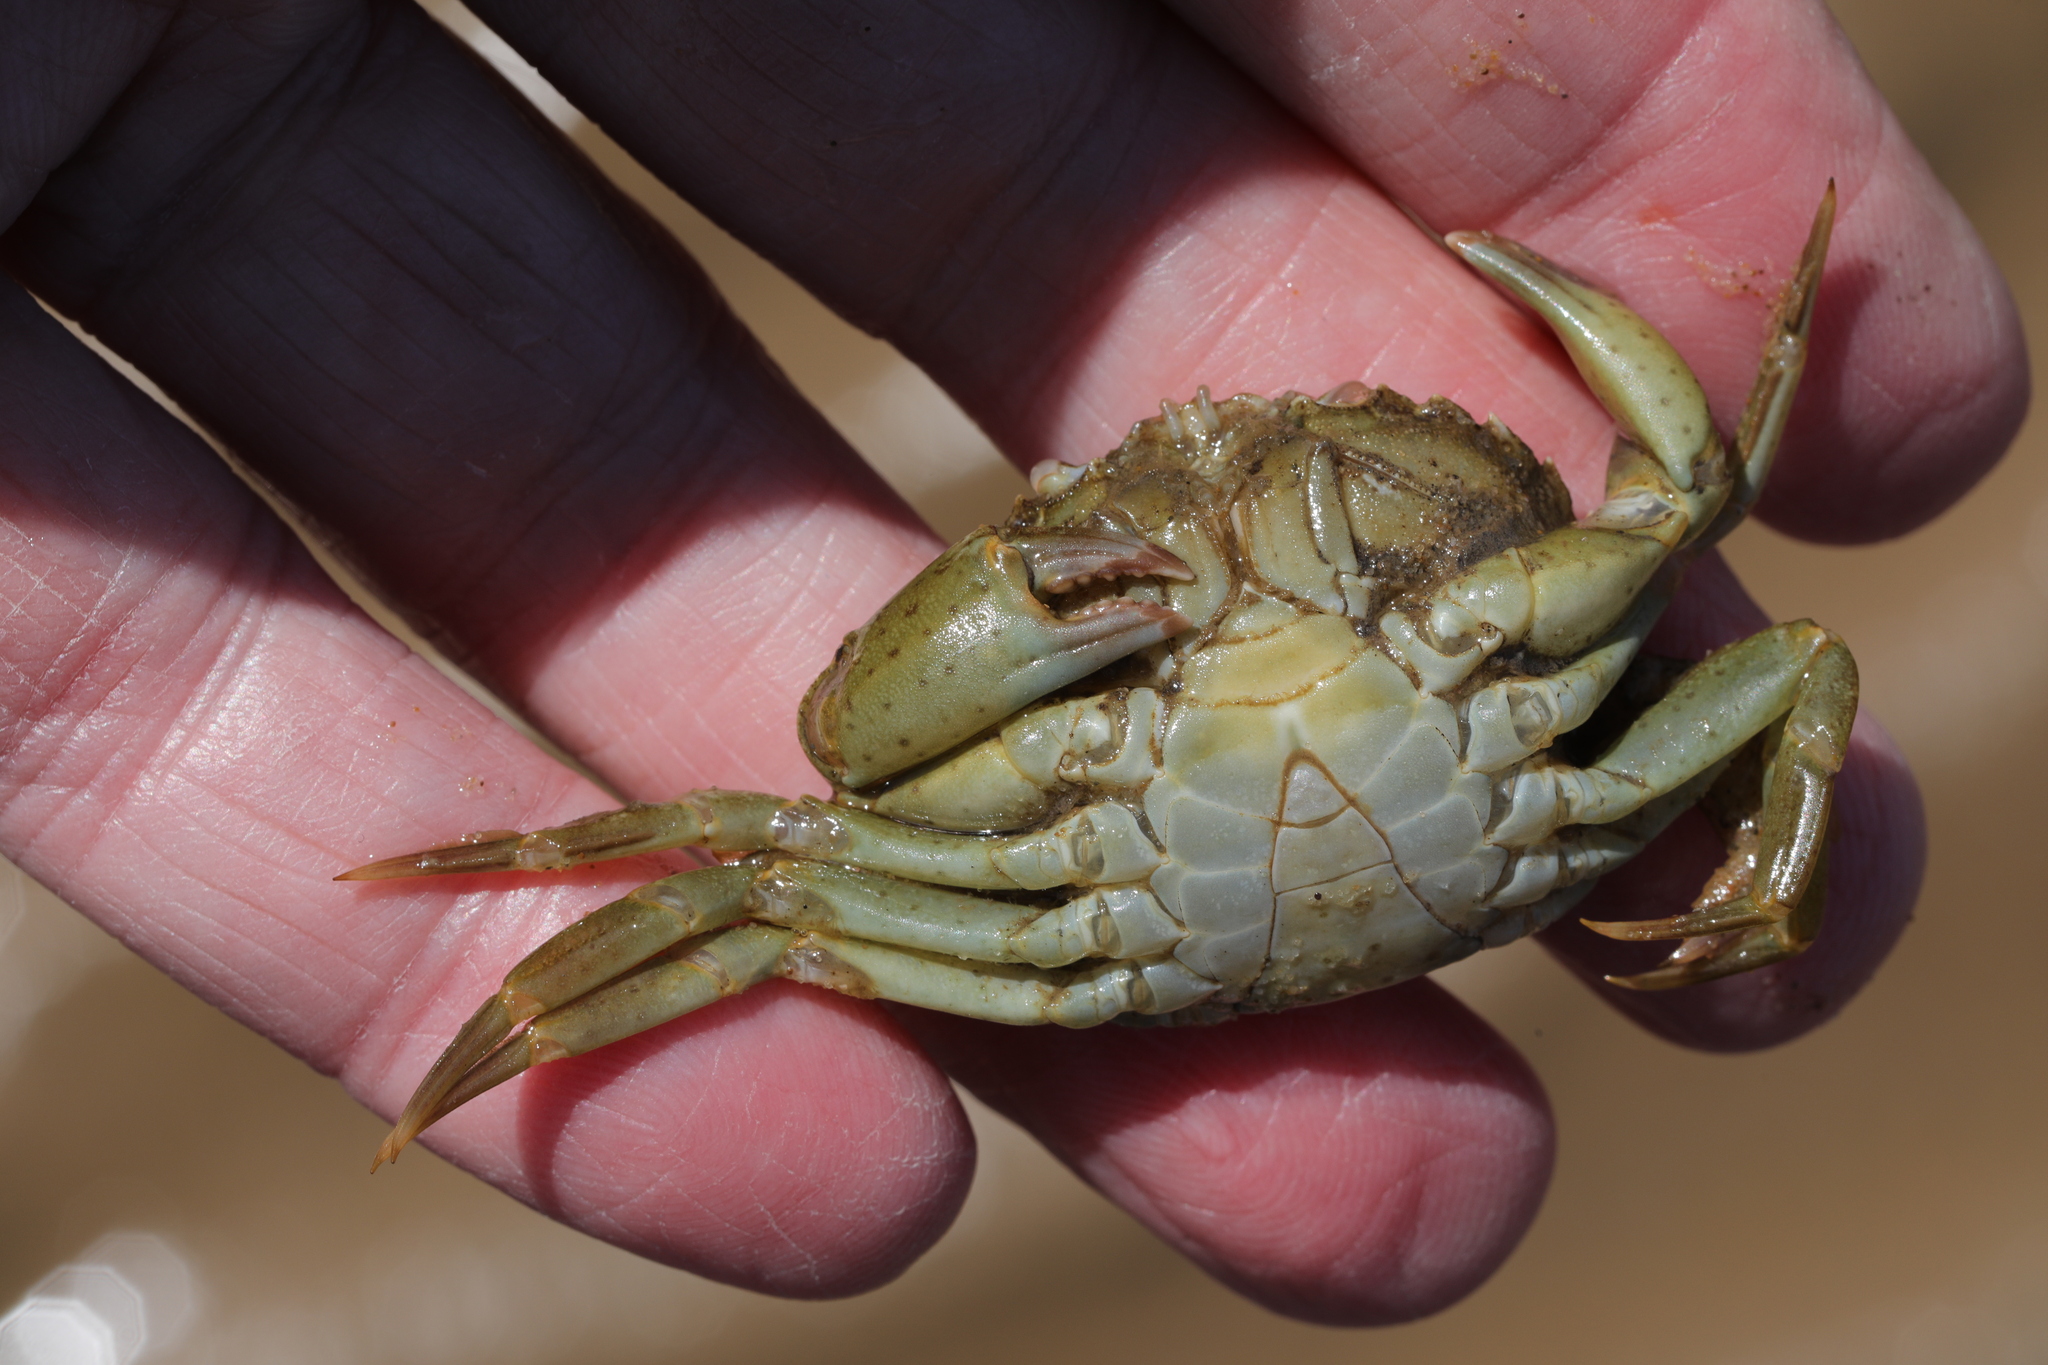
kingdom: Animalia
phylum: Arthropoda
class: Malacostraca
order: Decapoda
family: Carcinidae
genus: Carcinus
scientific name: Carcinus maenas
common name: European green crab
